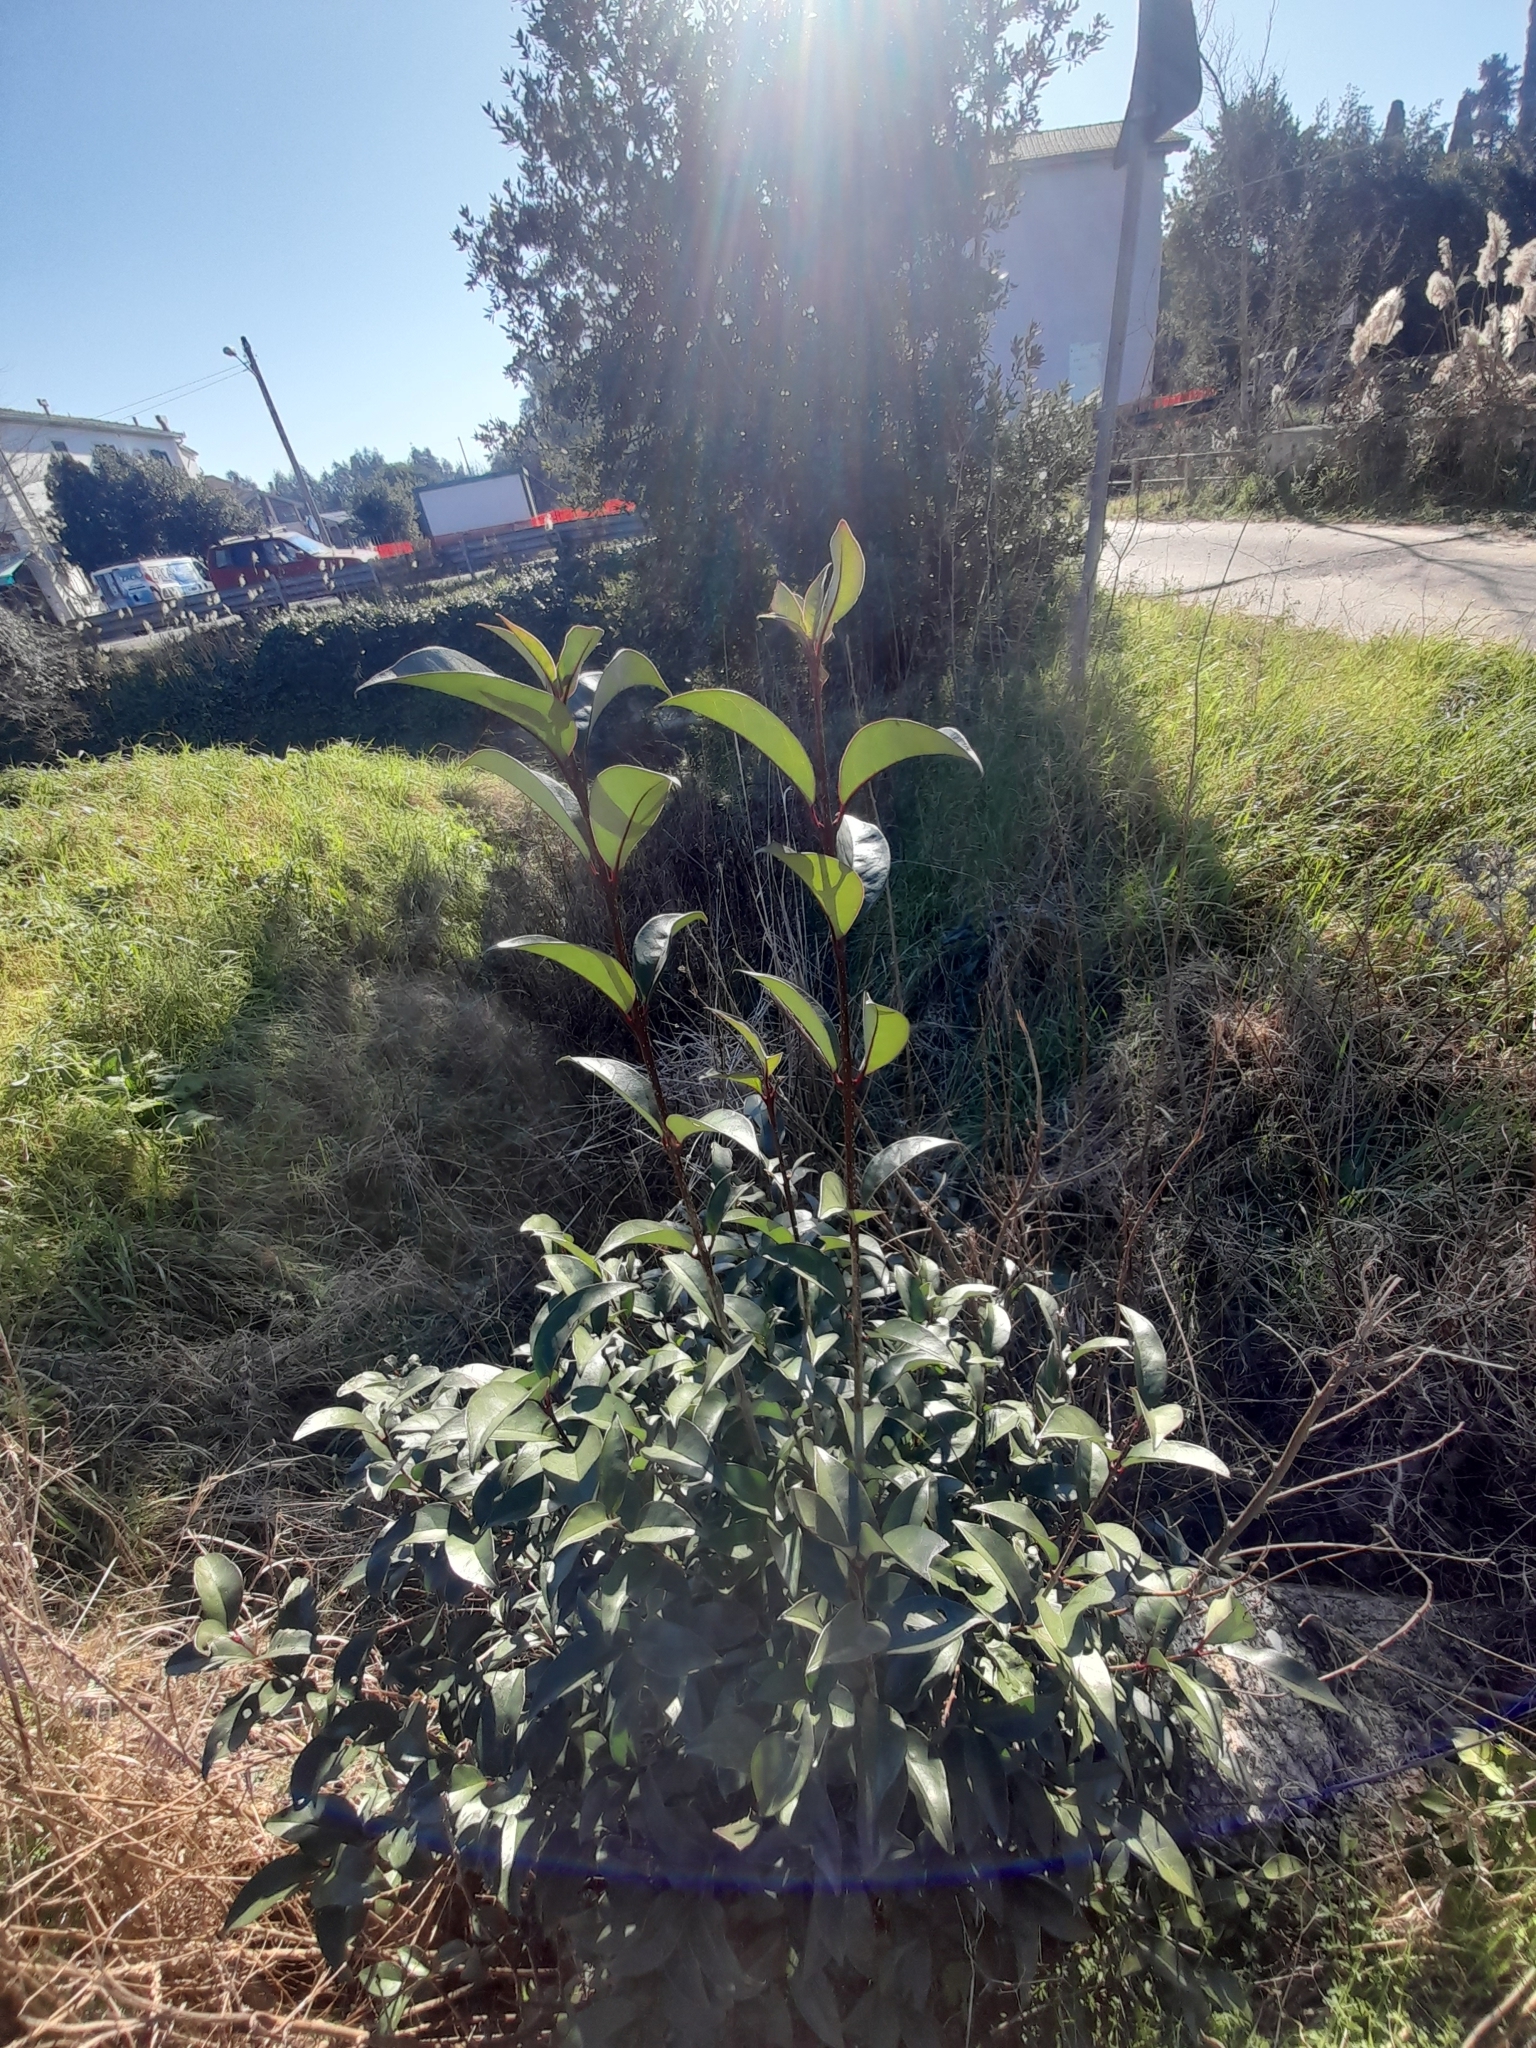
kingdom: Plantae
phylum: Tracheophyta
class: Magnoliopsida
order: Lamiales
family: Oleaceae
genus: Ligustrum
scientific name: Ligustrum lucidum
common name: Glossy privet
